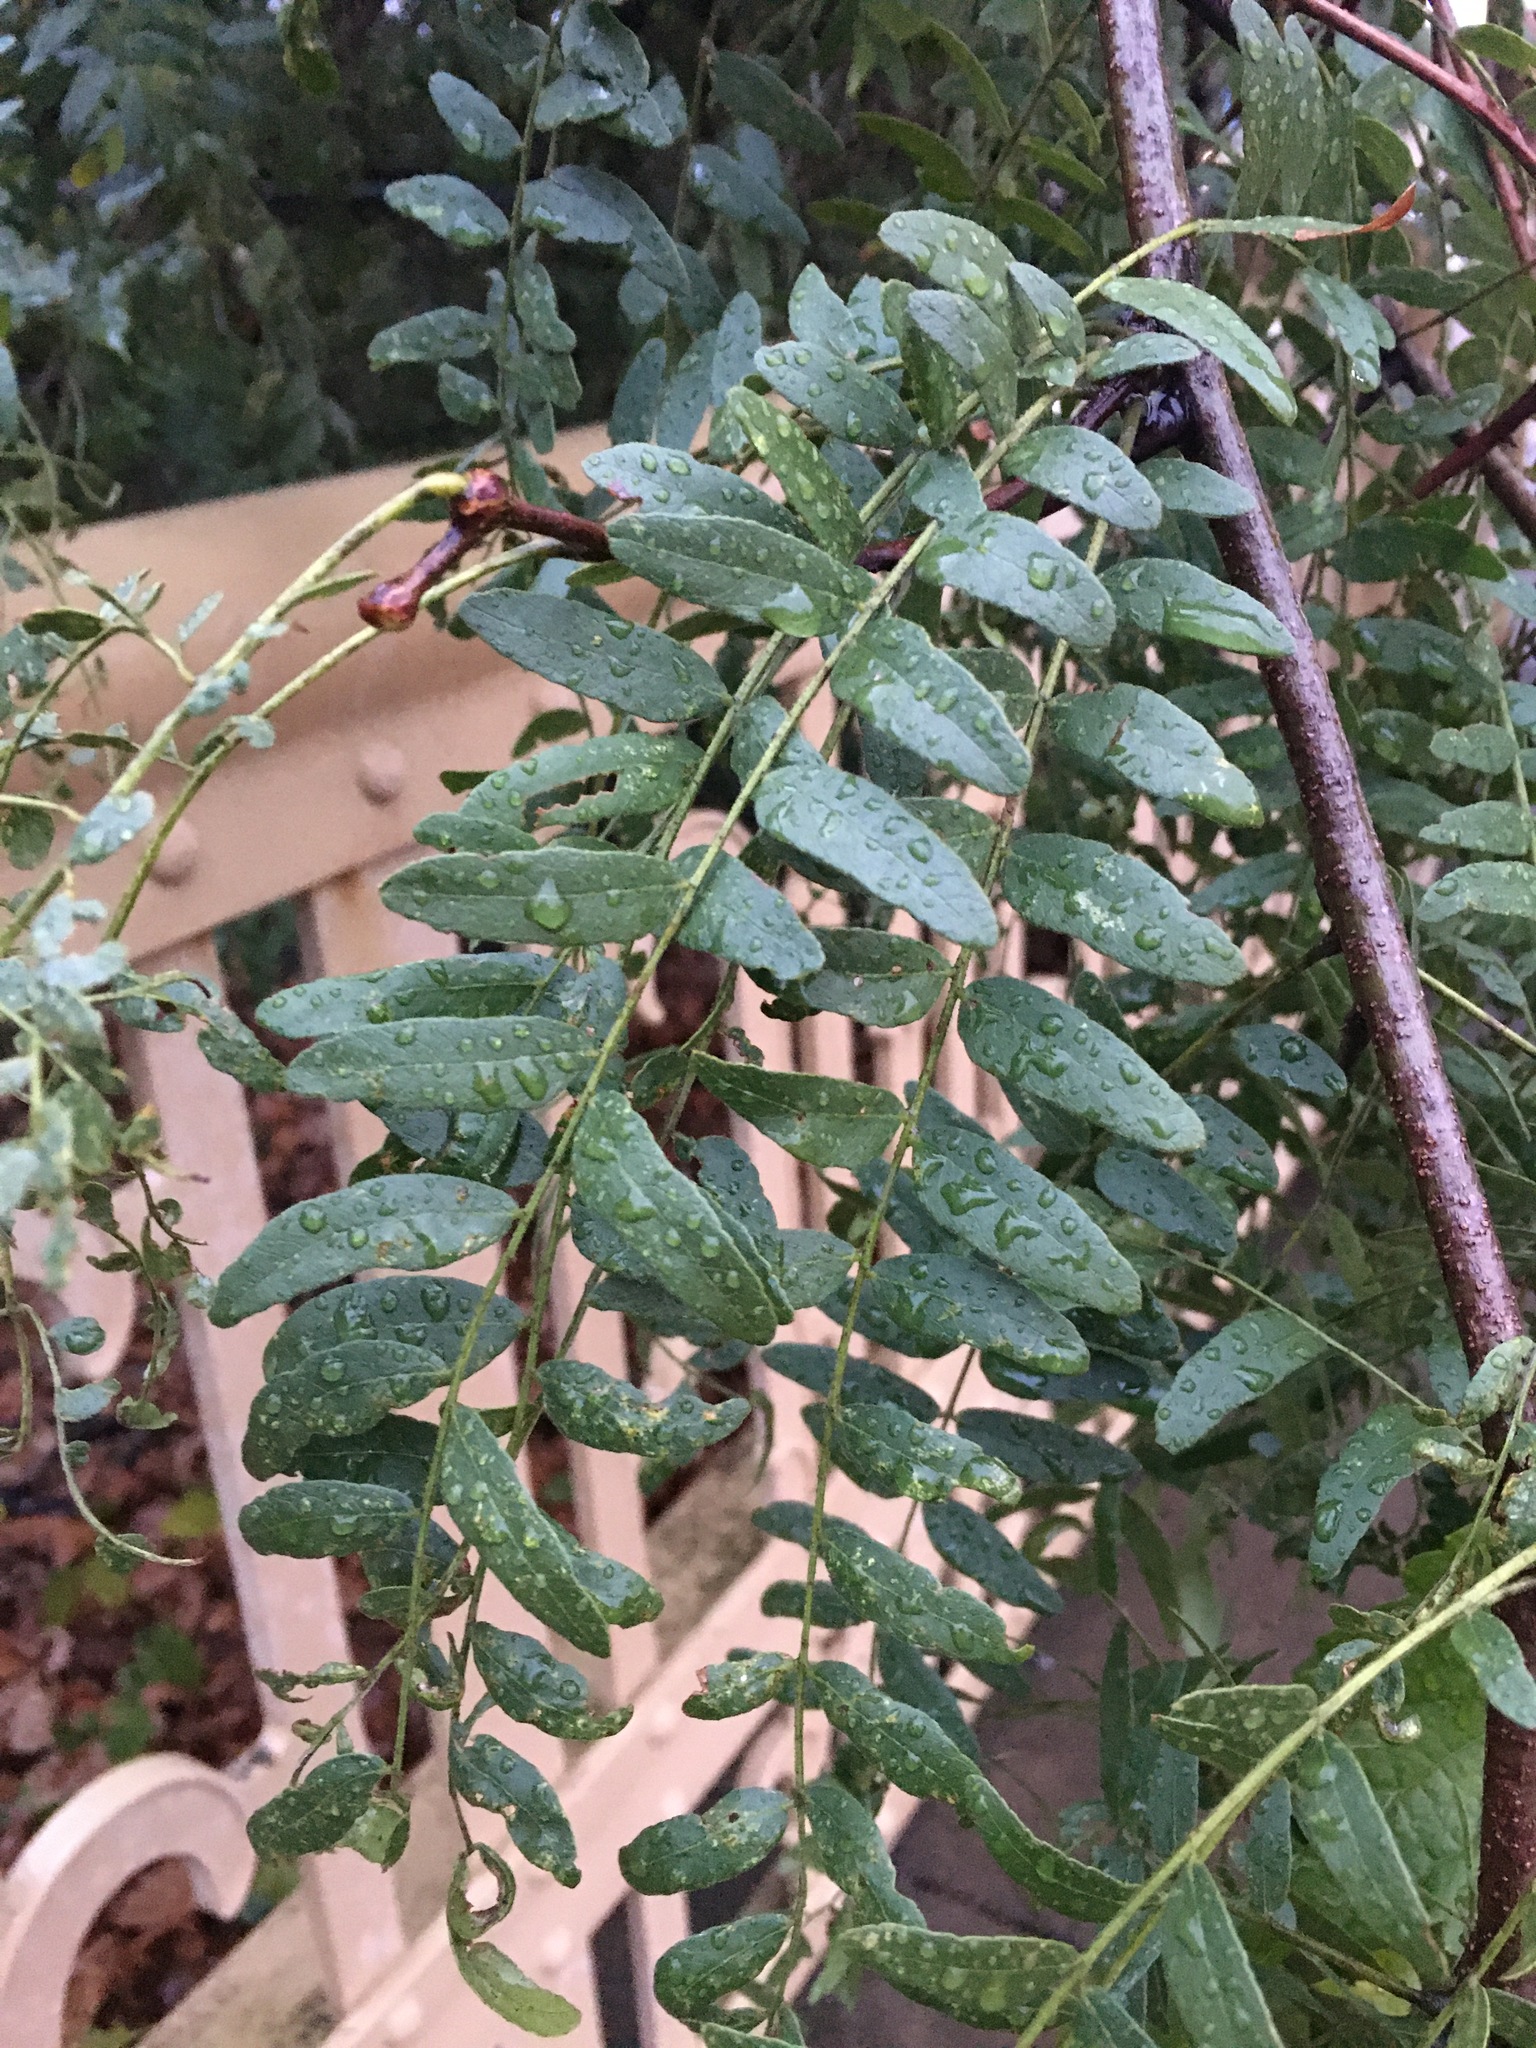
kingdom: Plantae
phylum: Tracheophyta
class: Magnoliopsida
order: Fabales
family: Fabaceae
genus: Gleditsia
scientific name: Gleditsia triacanthos
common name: Common honeylocust
